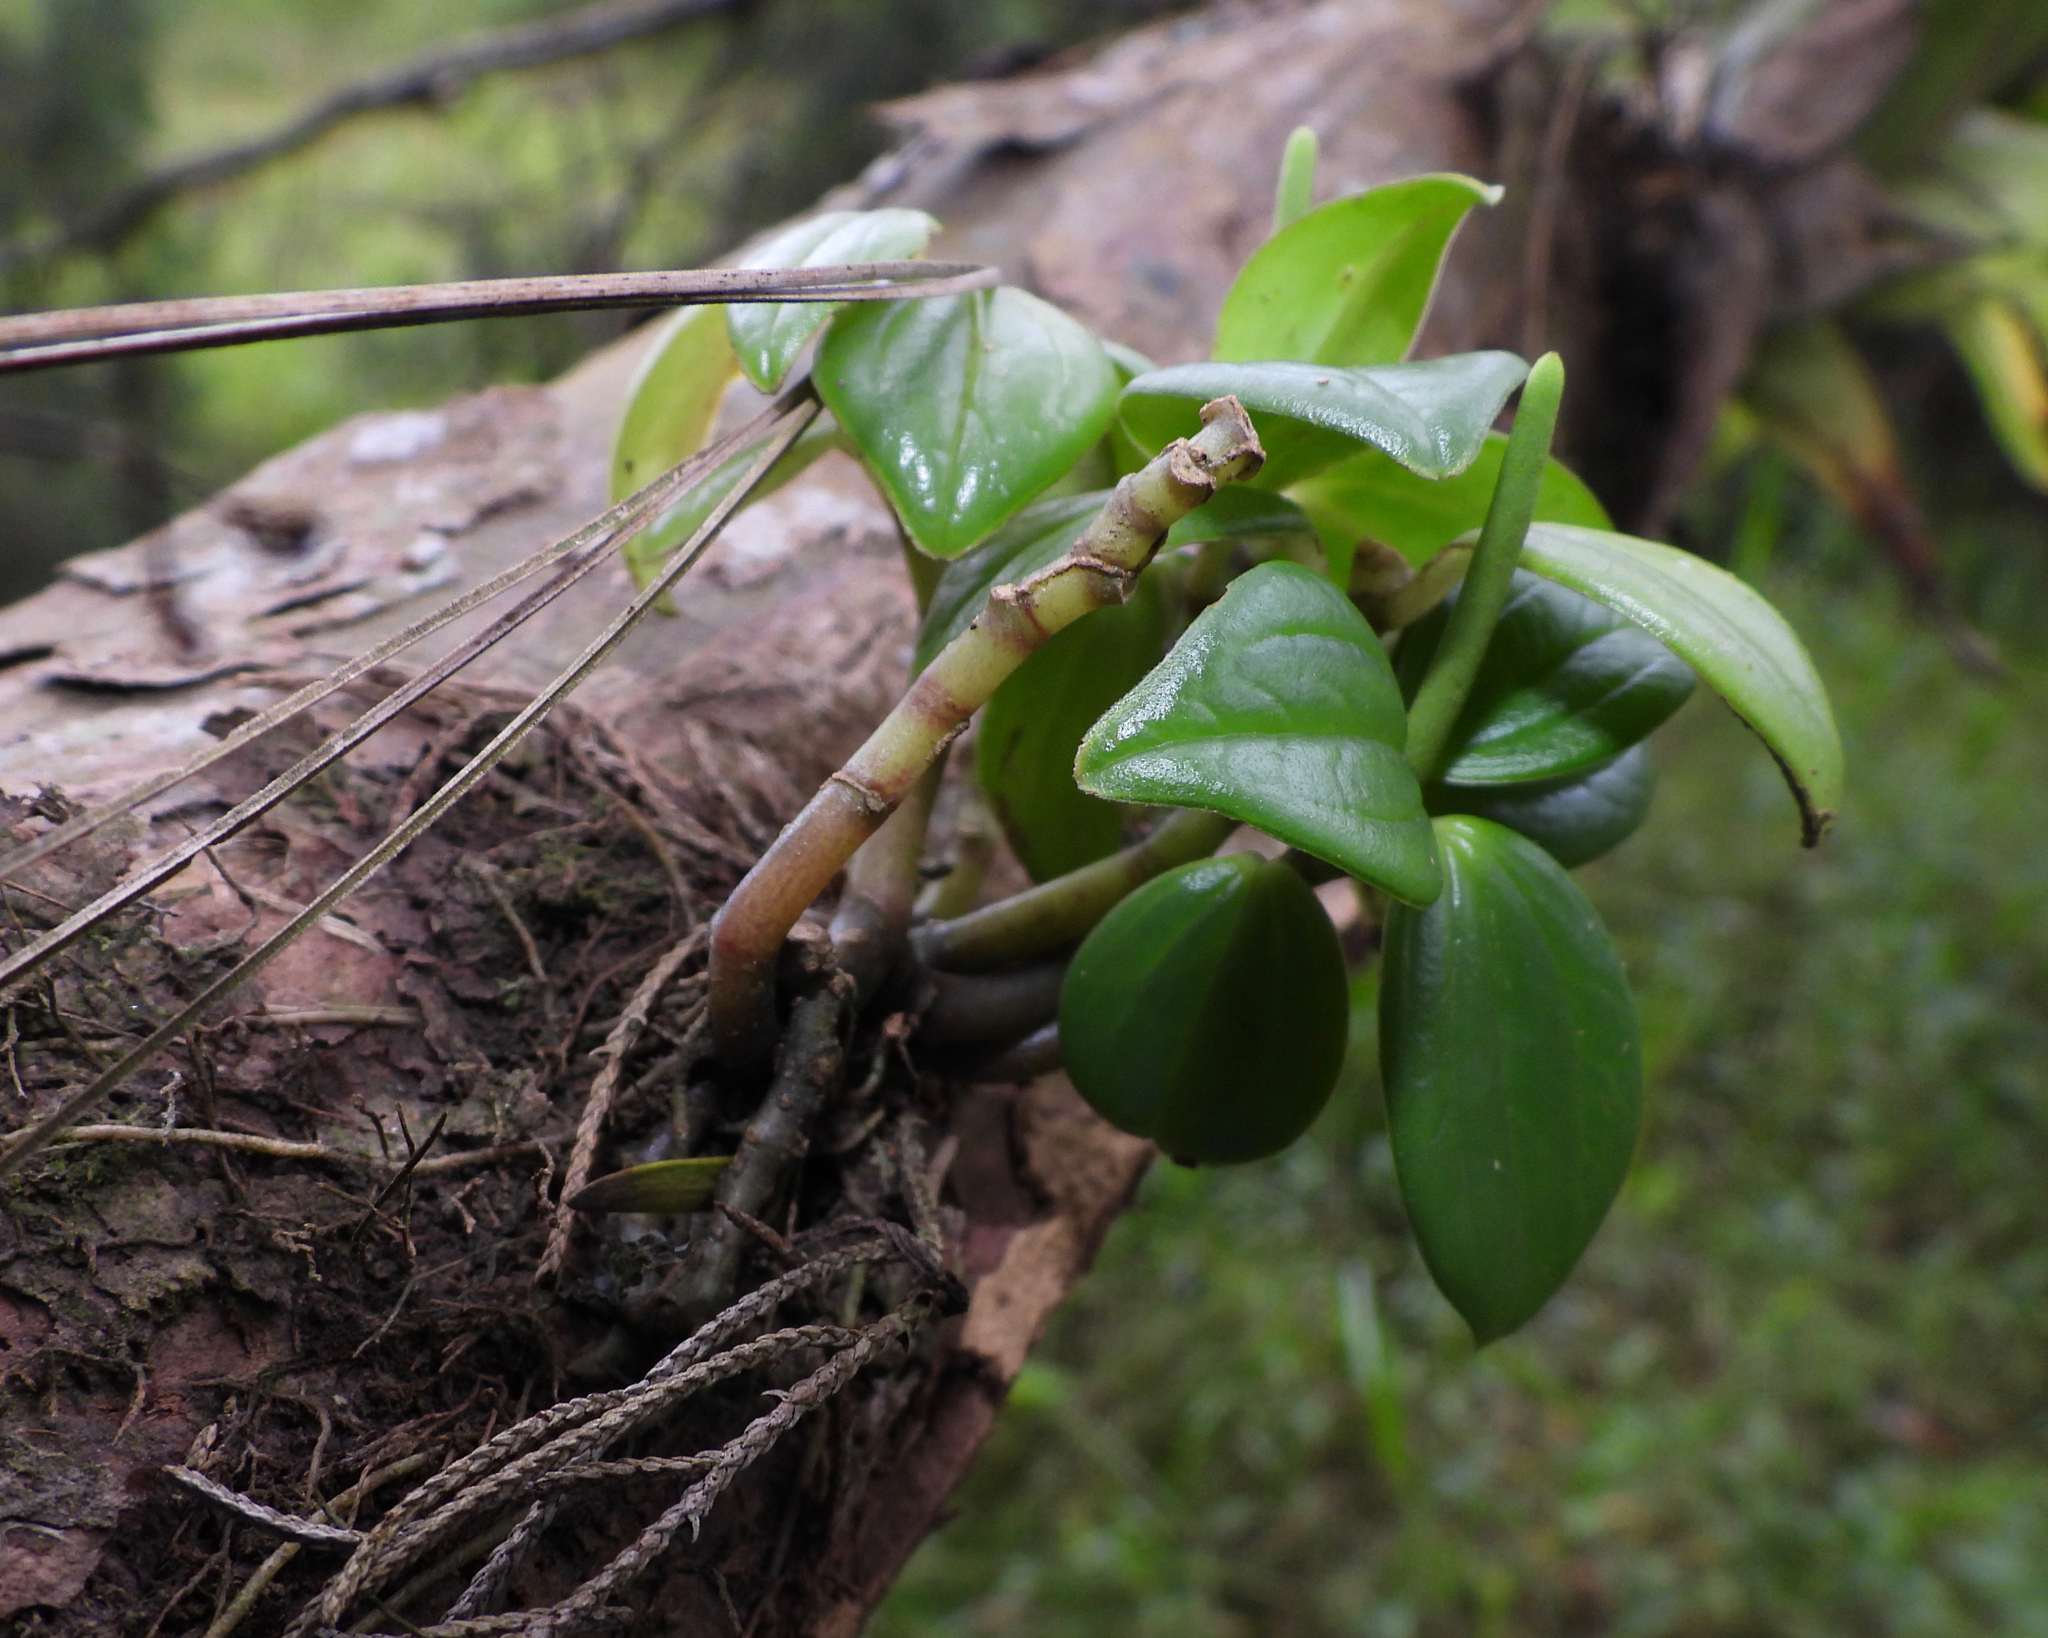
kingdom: Plantae
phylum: Tracheophyta
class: Magnoliopsida
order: Piperales
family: Piperaceae
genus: Peperomia
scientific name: Peperomia san-joseana
